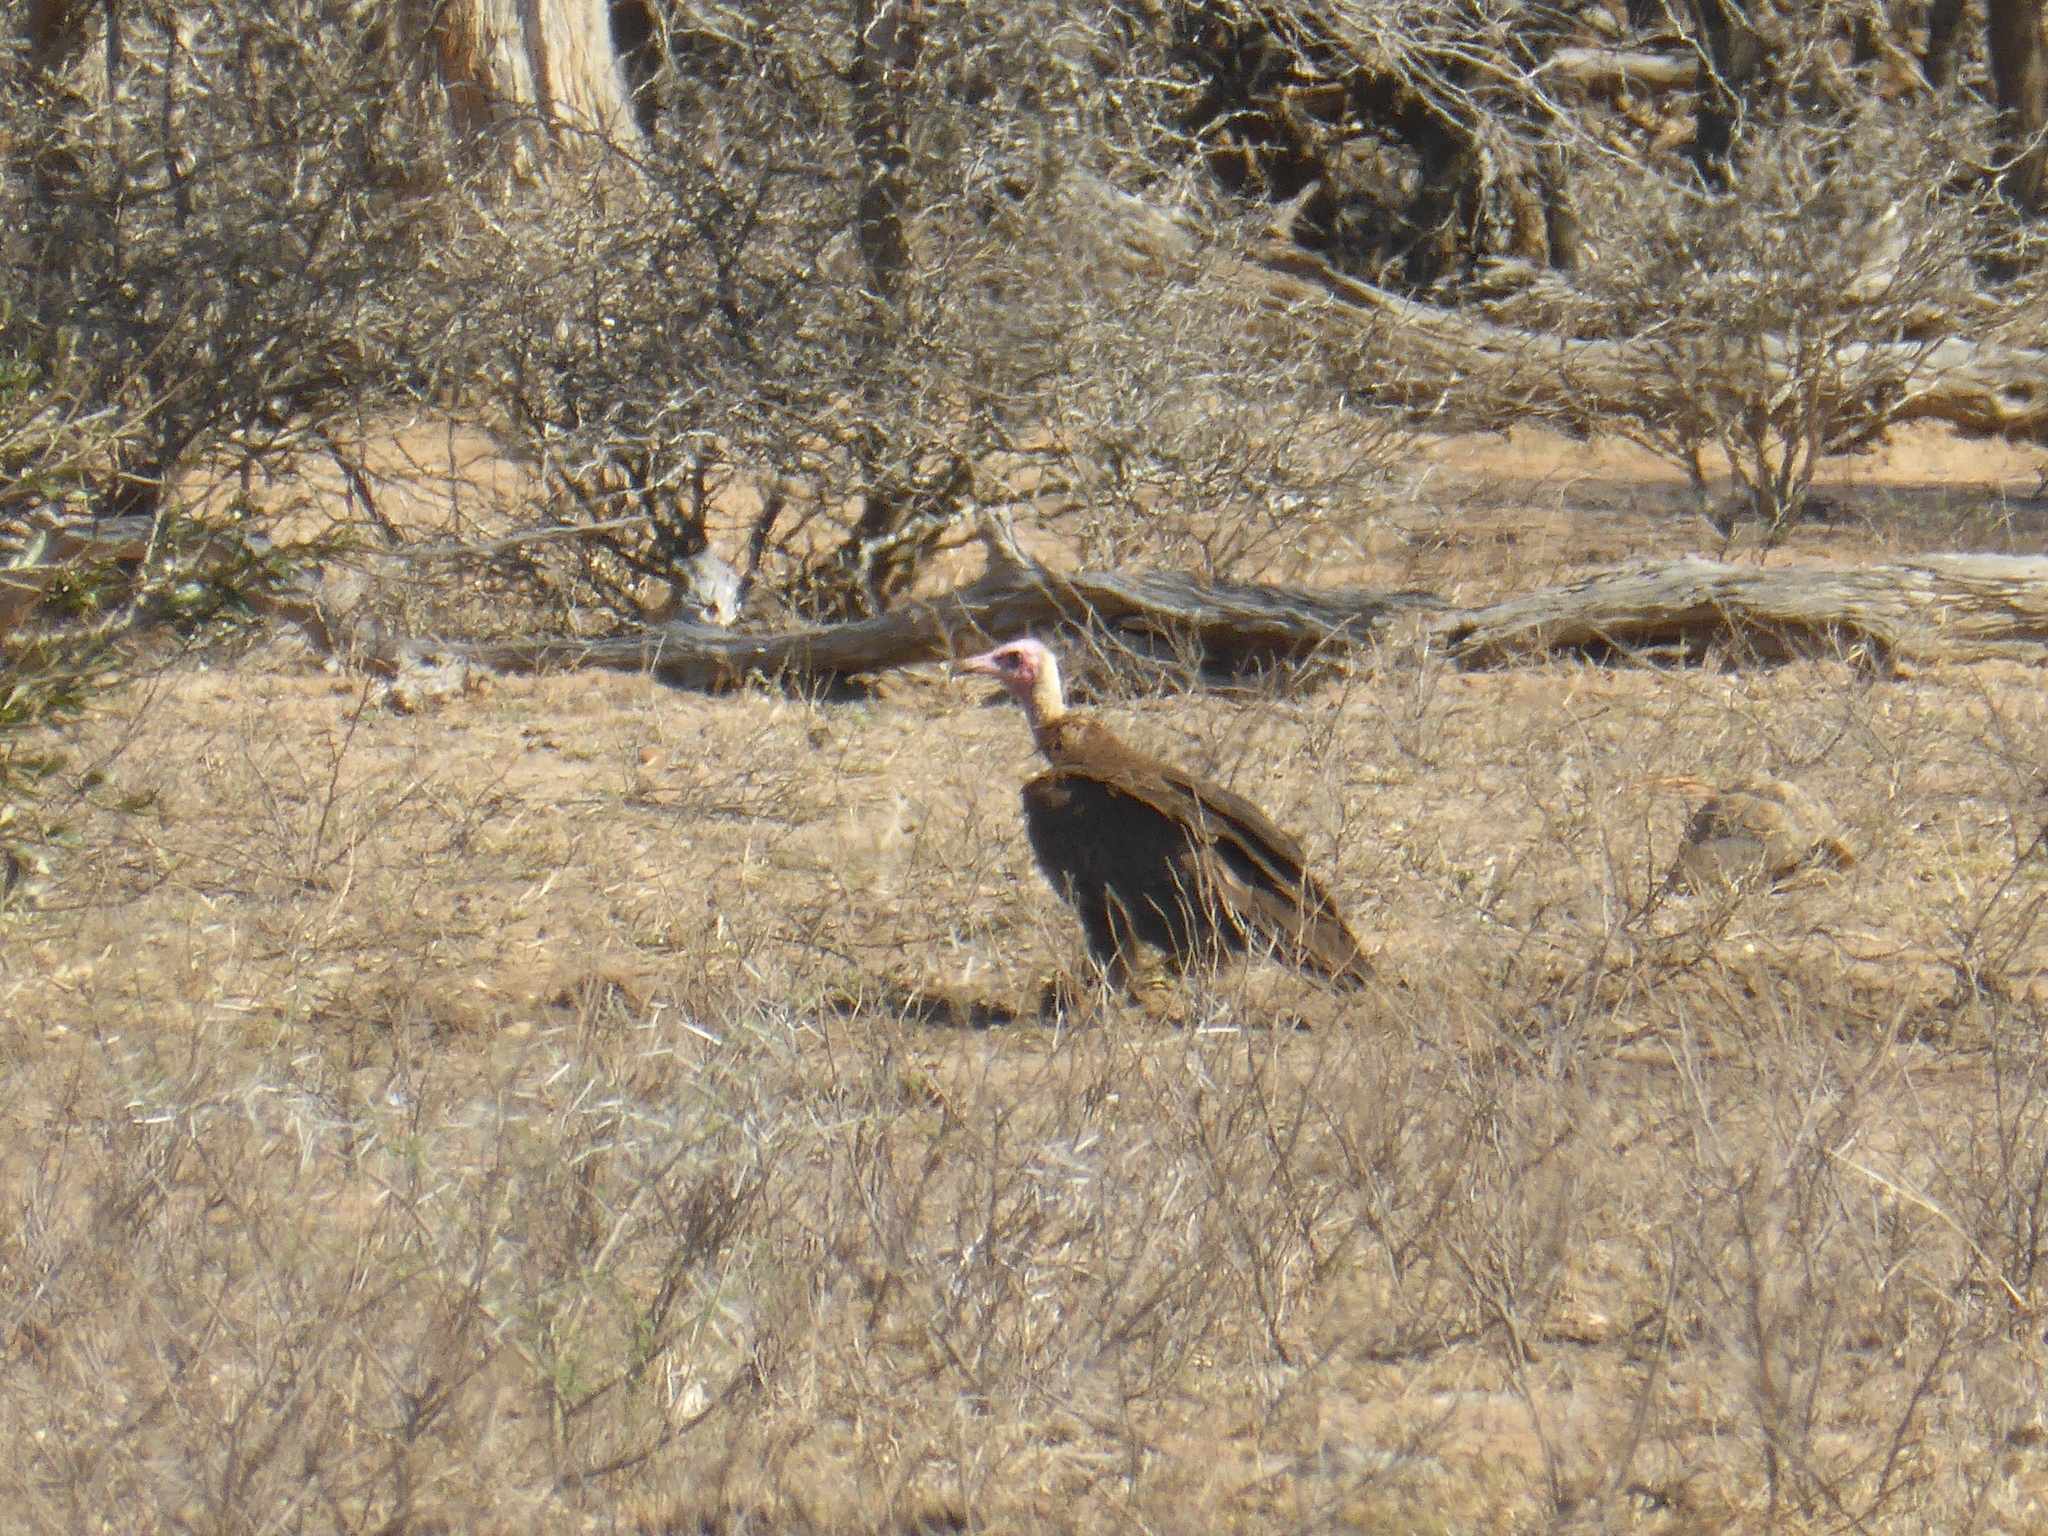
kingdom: Animalia
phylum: Chordata
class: Aves
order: Accipitriformes
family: Accipitridae
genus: Necrosyrtes
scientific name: Necrosyrtes monachus
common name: Hooded vulture
